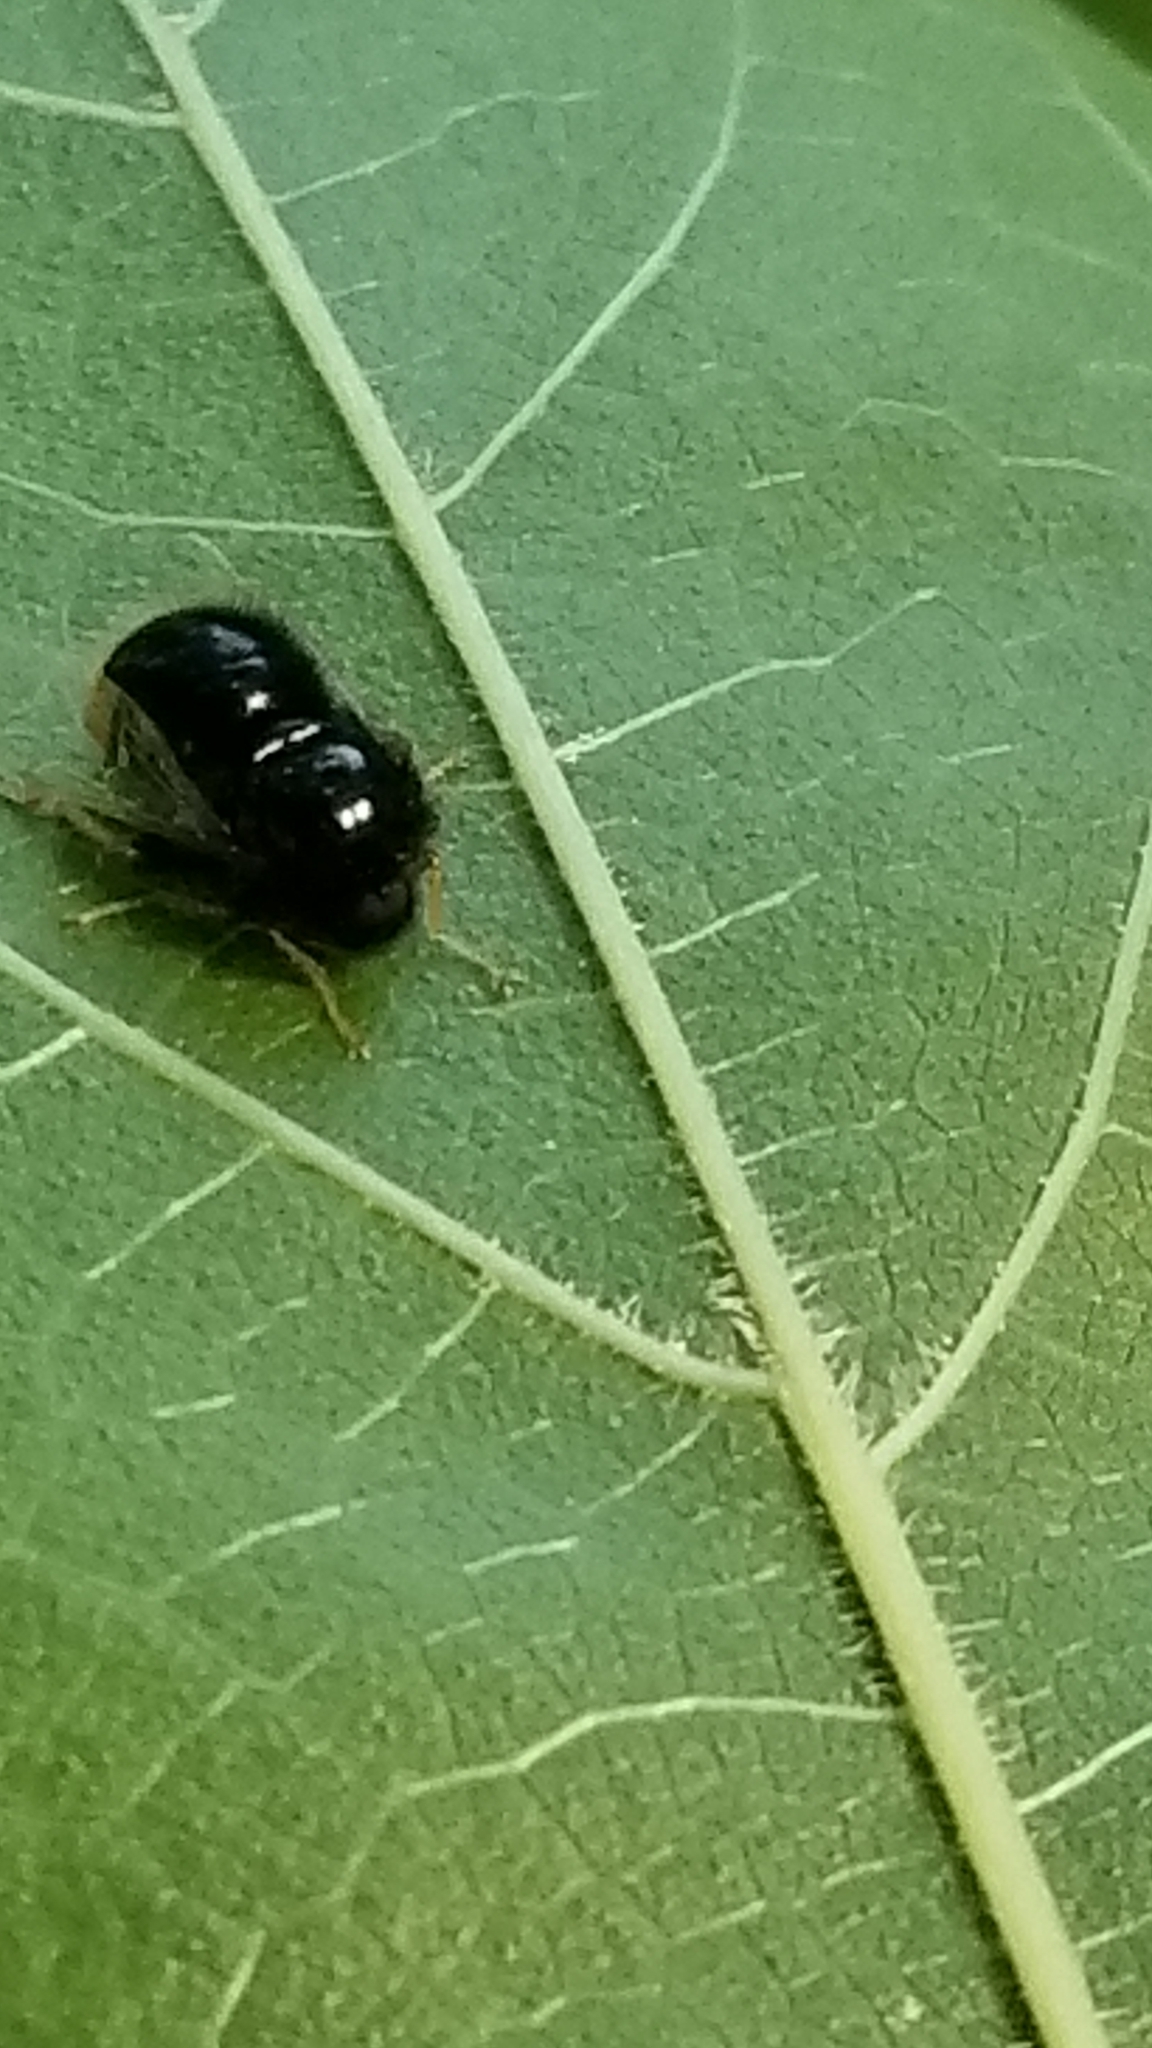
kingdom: Animalia
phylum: Arthropoda
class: Insecta
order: Diptera
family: Acroceridae
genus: Pterodontia
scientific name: Pterodontia westwoodi
